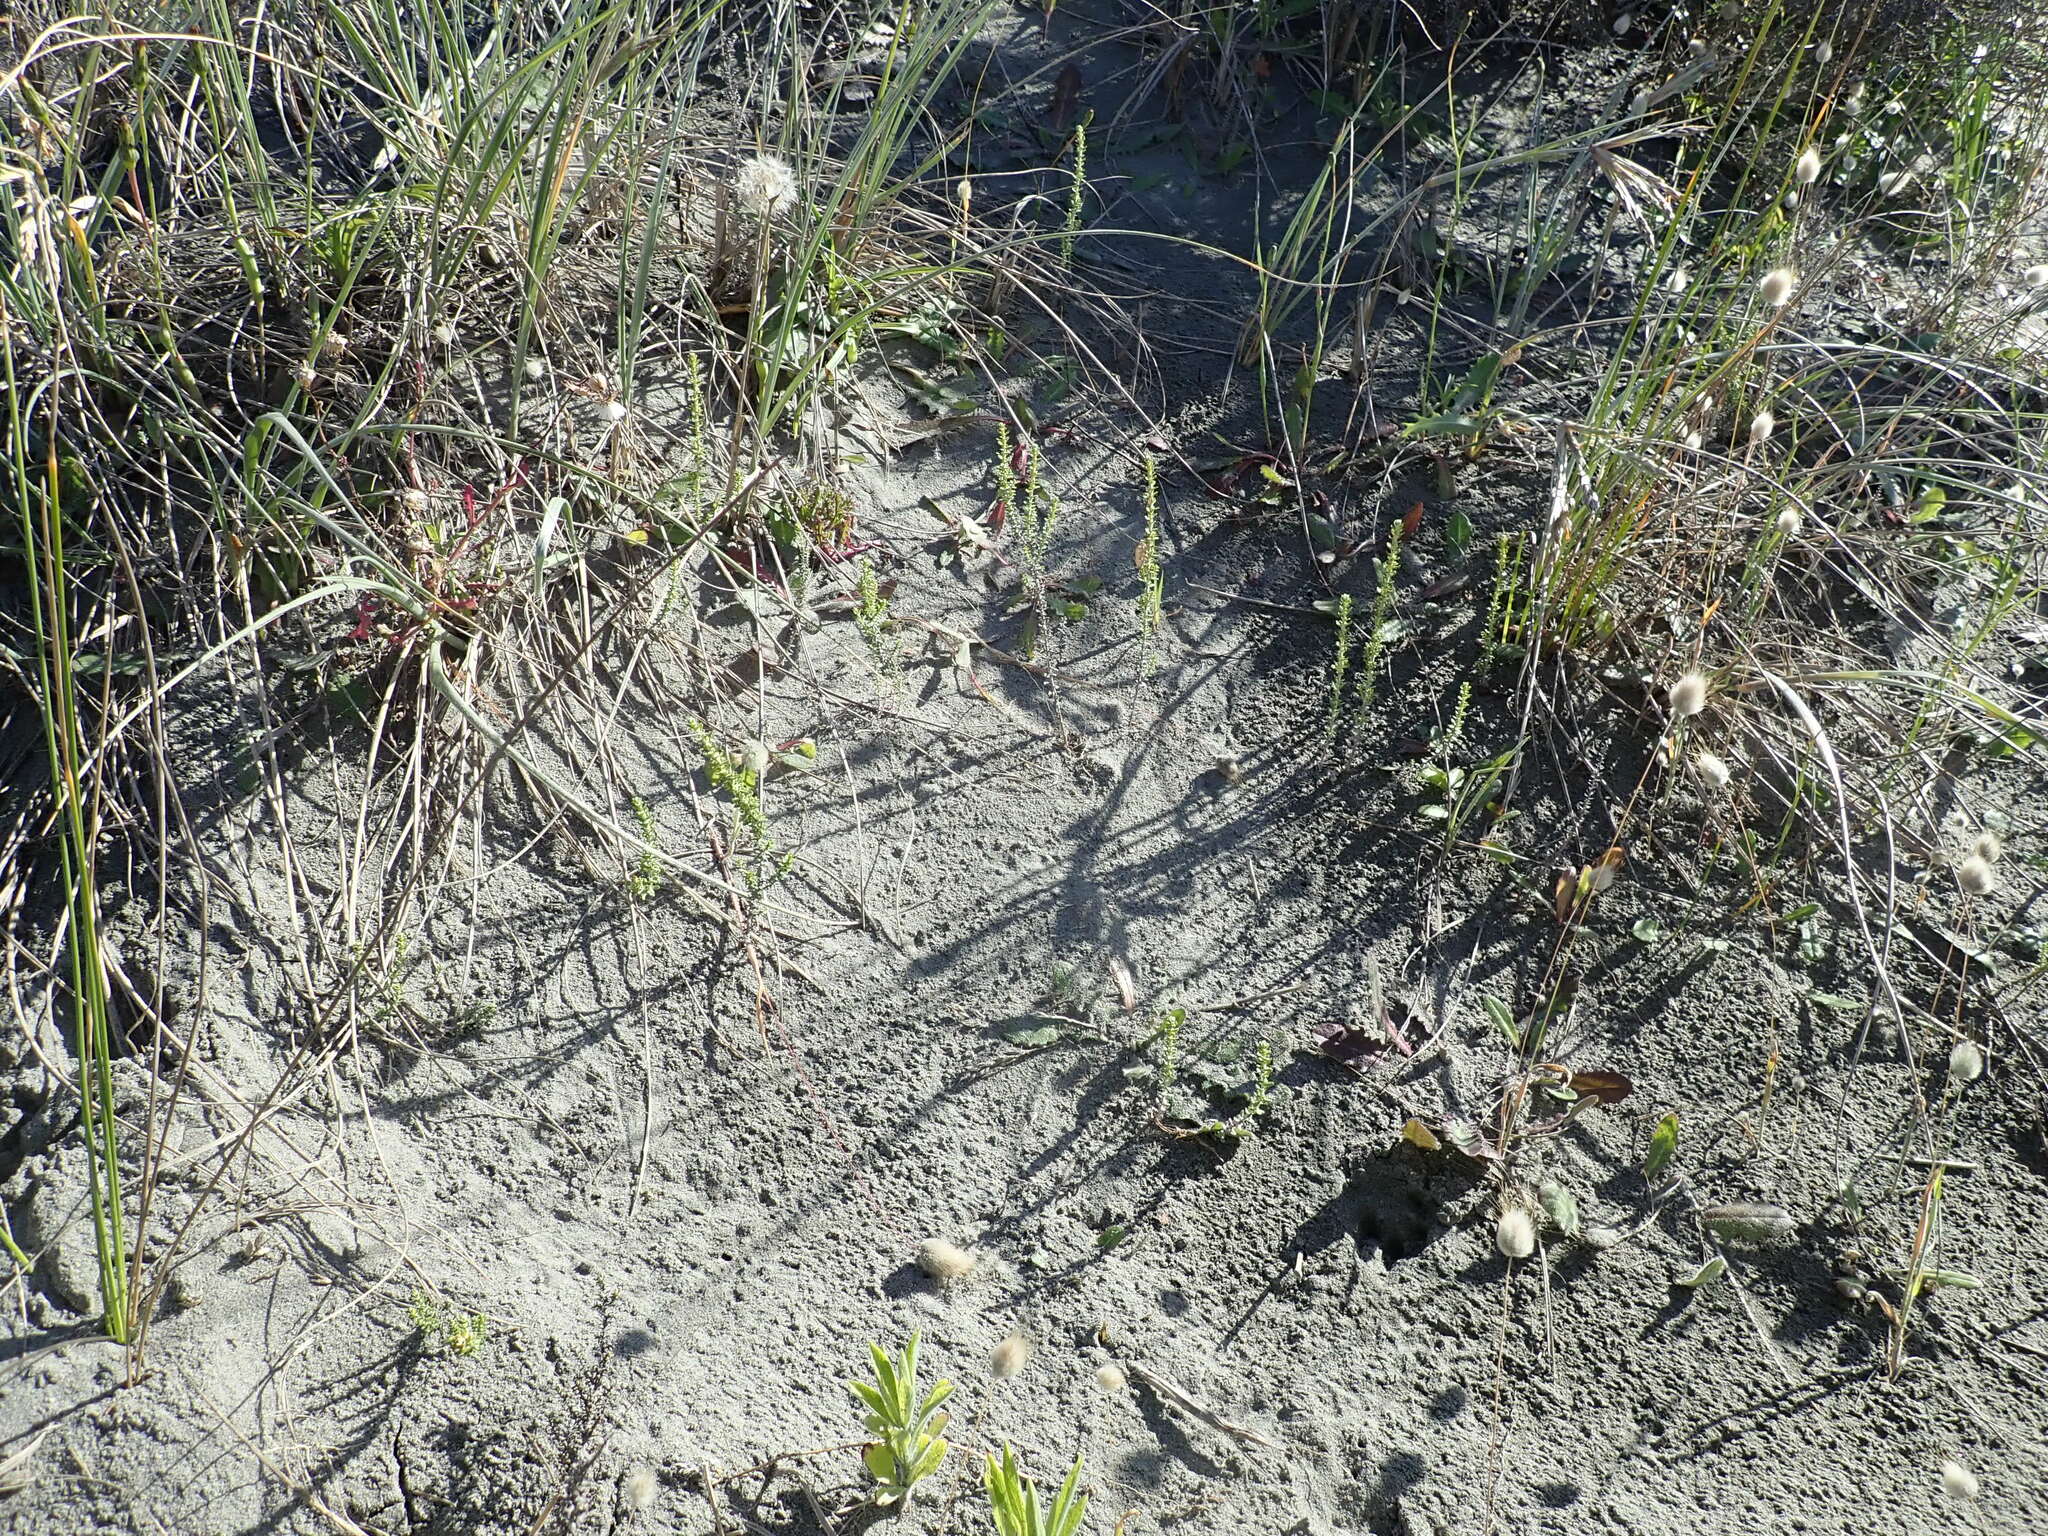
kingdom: Plantae
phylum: Tracheophyta
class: Magnoliopsida
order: Asterales
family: Asteraceae
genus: Ozothamnus
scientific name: Ozothamnus leptophyllus
